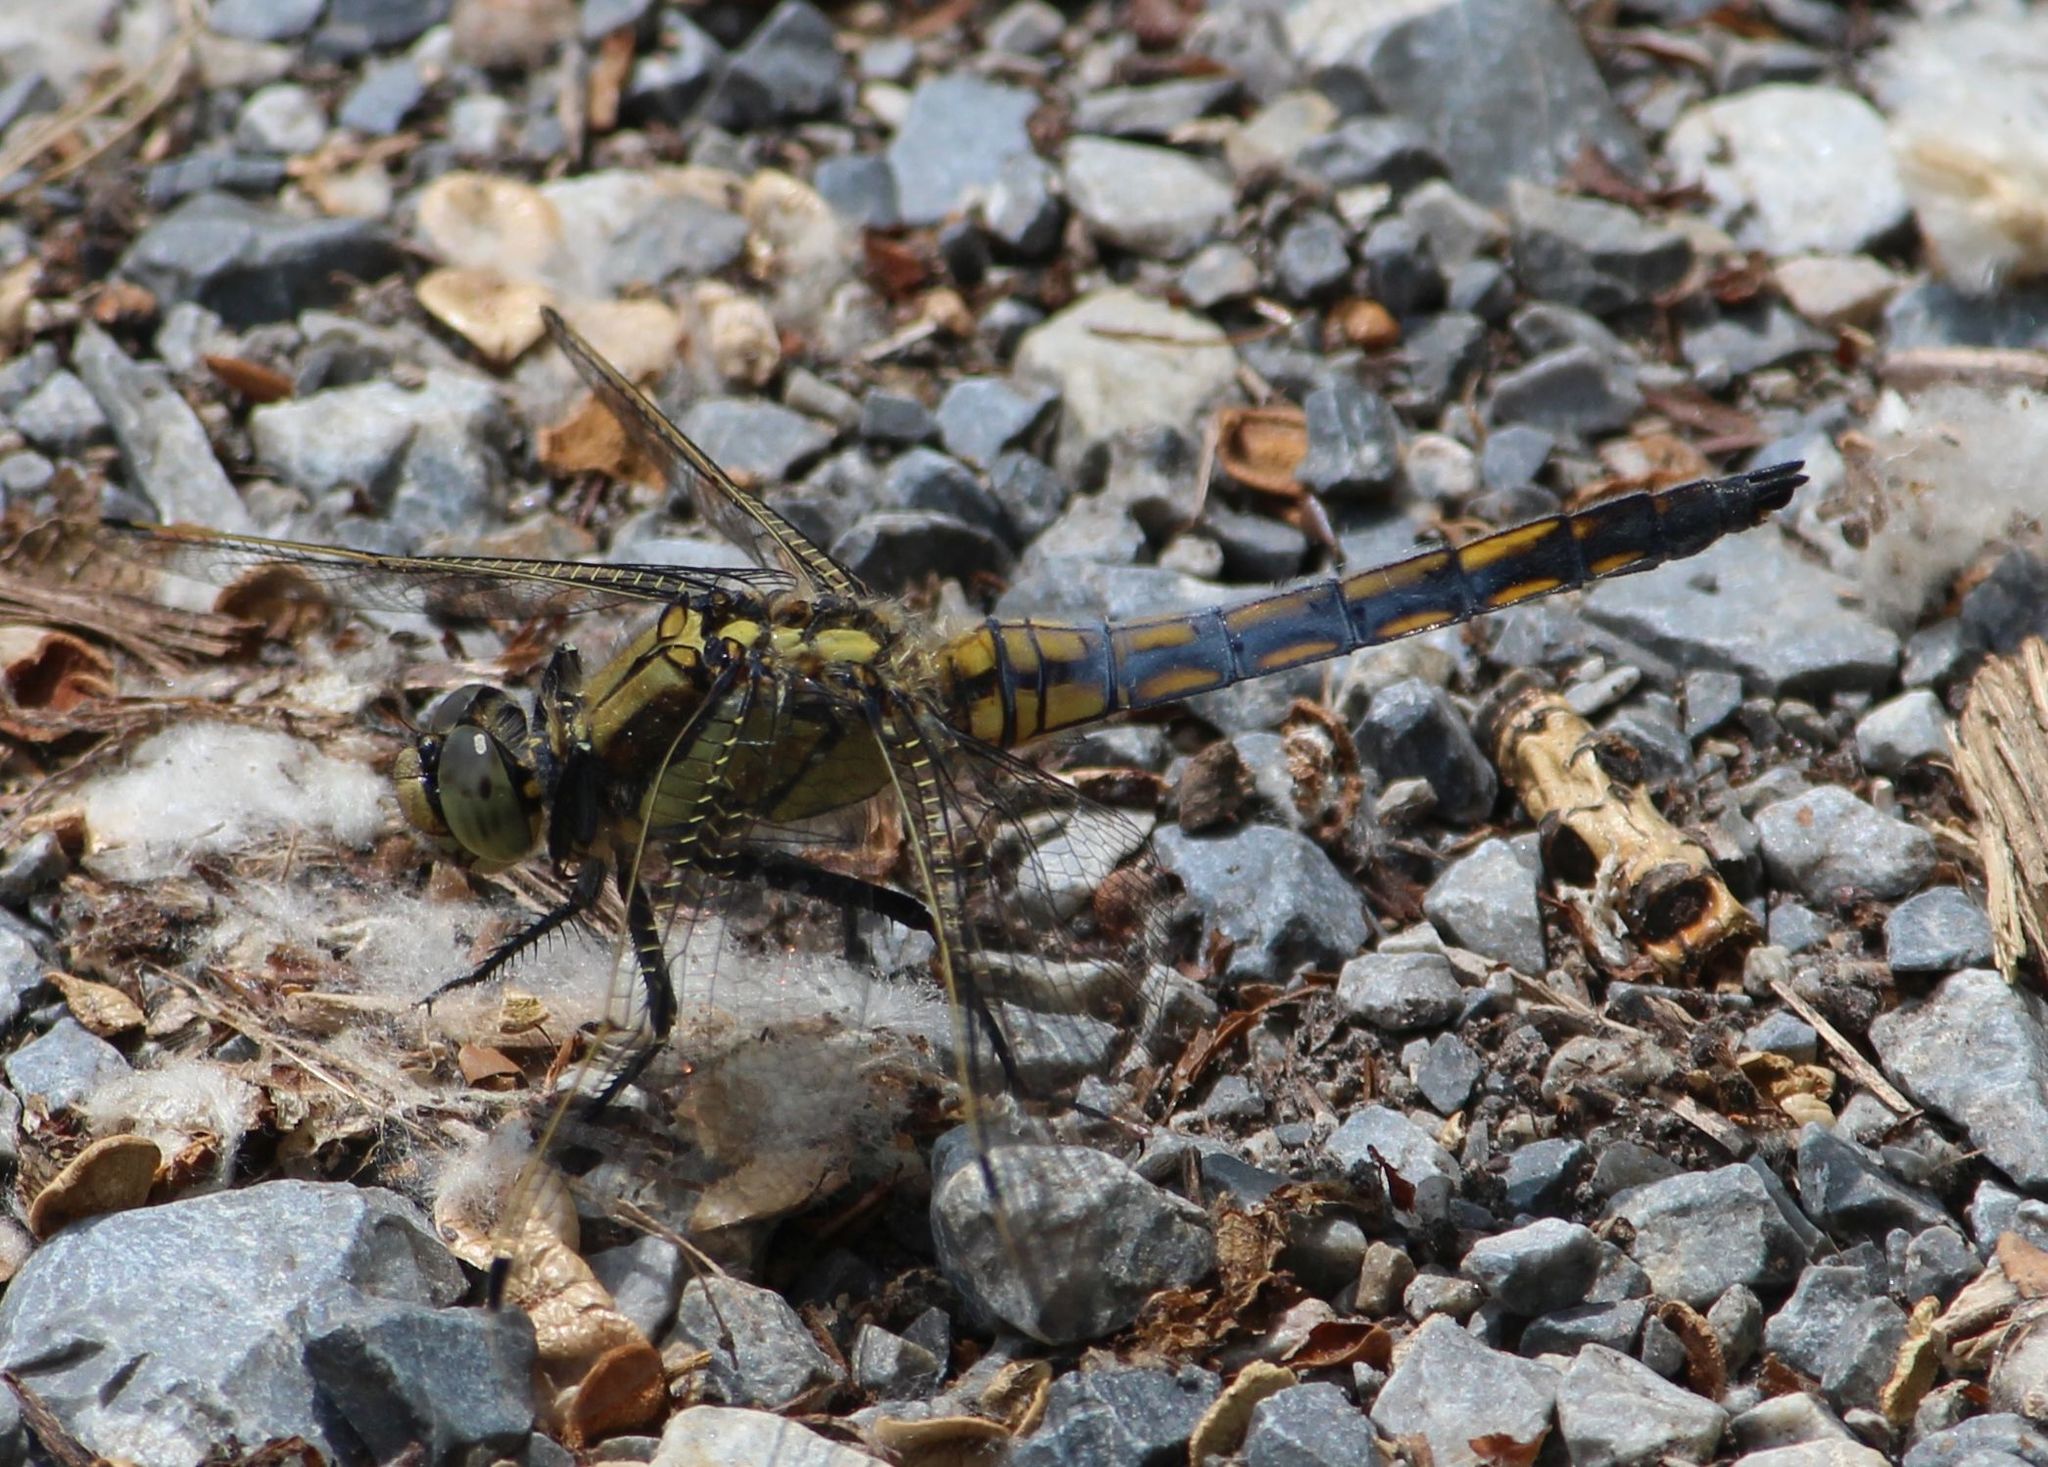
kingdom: Animalia
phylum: Arthropoda
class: Insecta
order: Odonata
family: Libellulidae
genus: Orthetrum
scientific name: Orthetrum cancellatum
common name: Black-tailed skimmer
